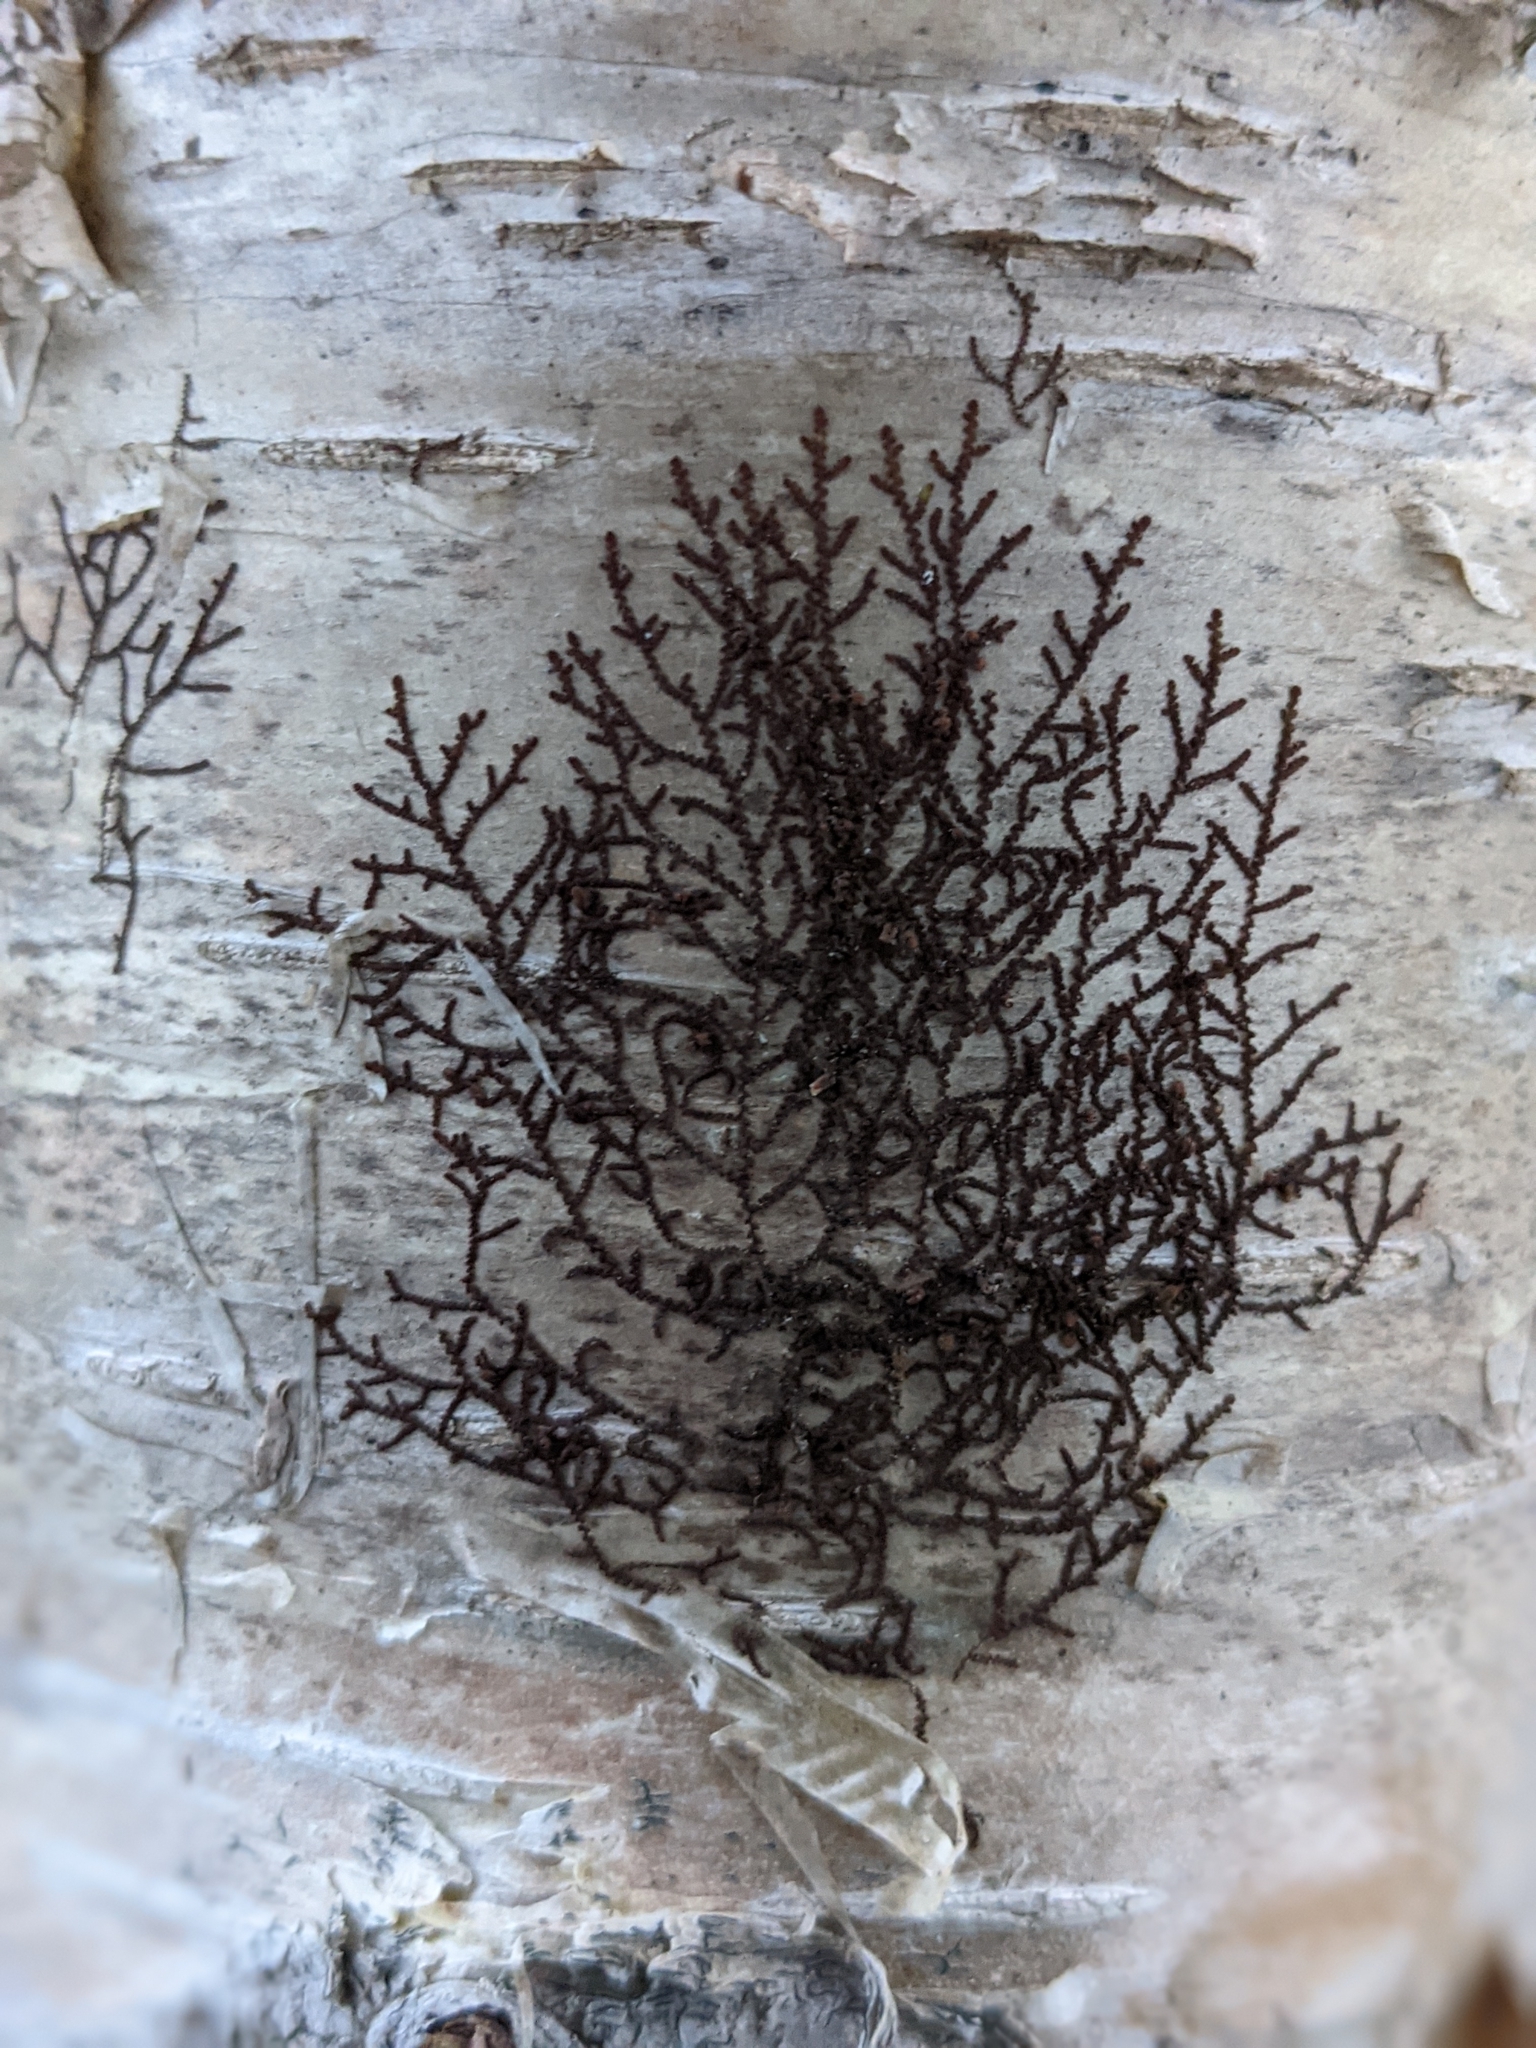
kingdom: Plantae
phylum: Marchantiophyta
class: Jungermanniopsida
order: Porellales
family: Frullaniaceae
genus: Frullania
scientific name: Frullania eboracensis
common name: New york scalewort
